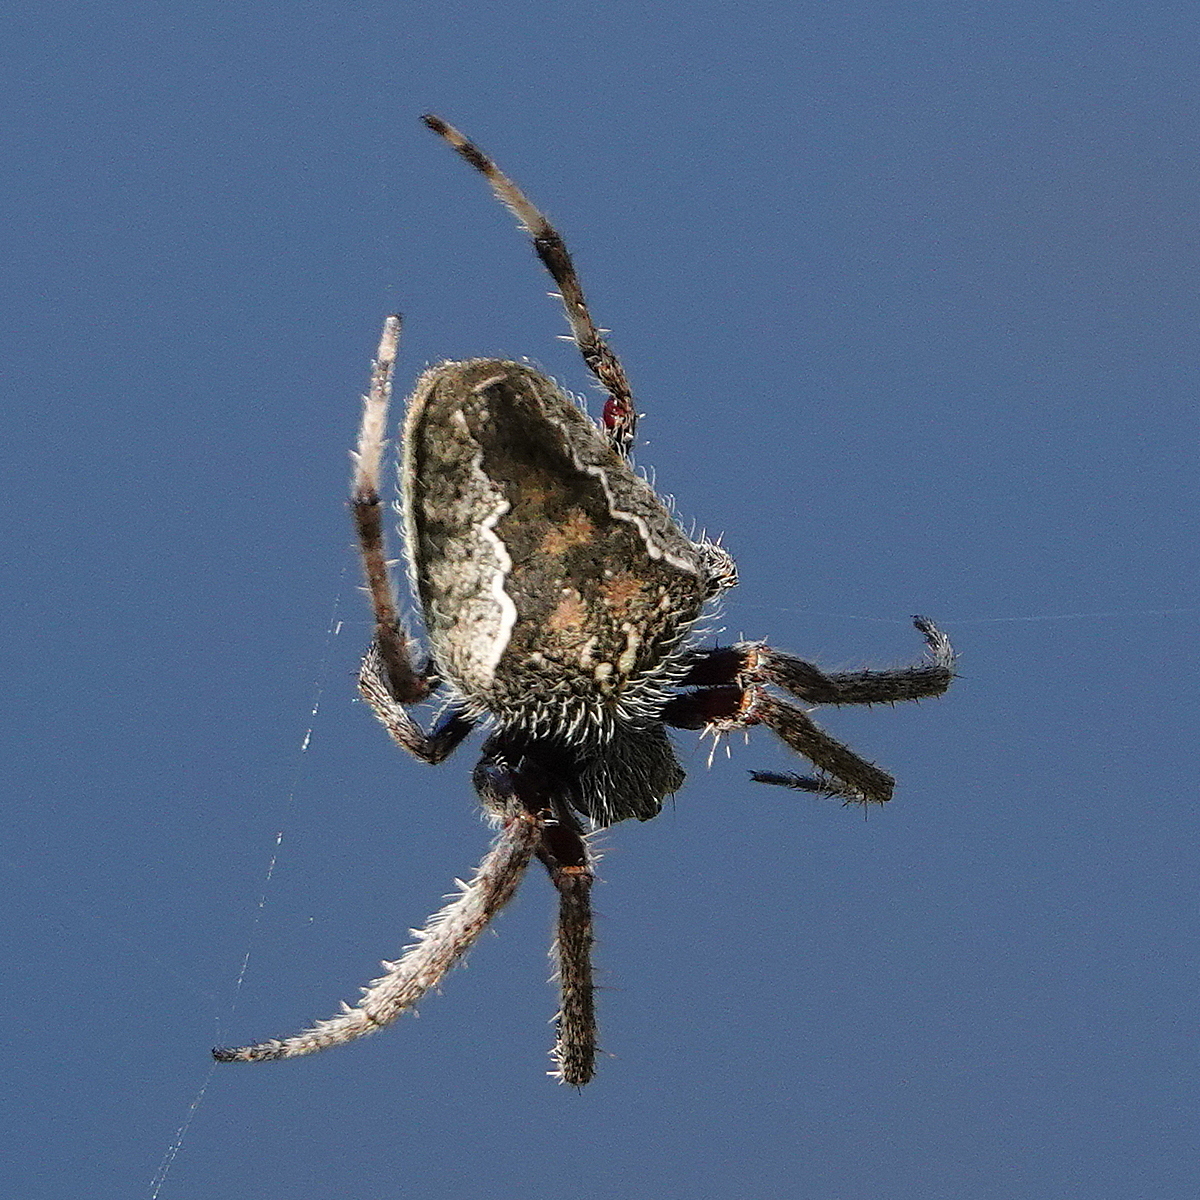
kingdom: Animalia
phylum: Arthropoda
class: Arachnida
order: Araneae
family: Araneidae
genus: Hortophora
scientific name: Hortophora tatianeae
